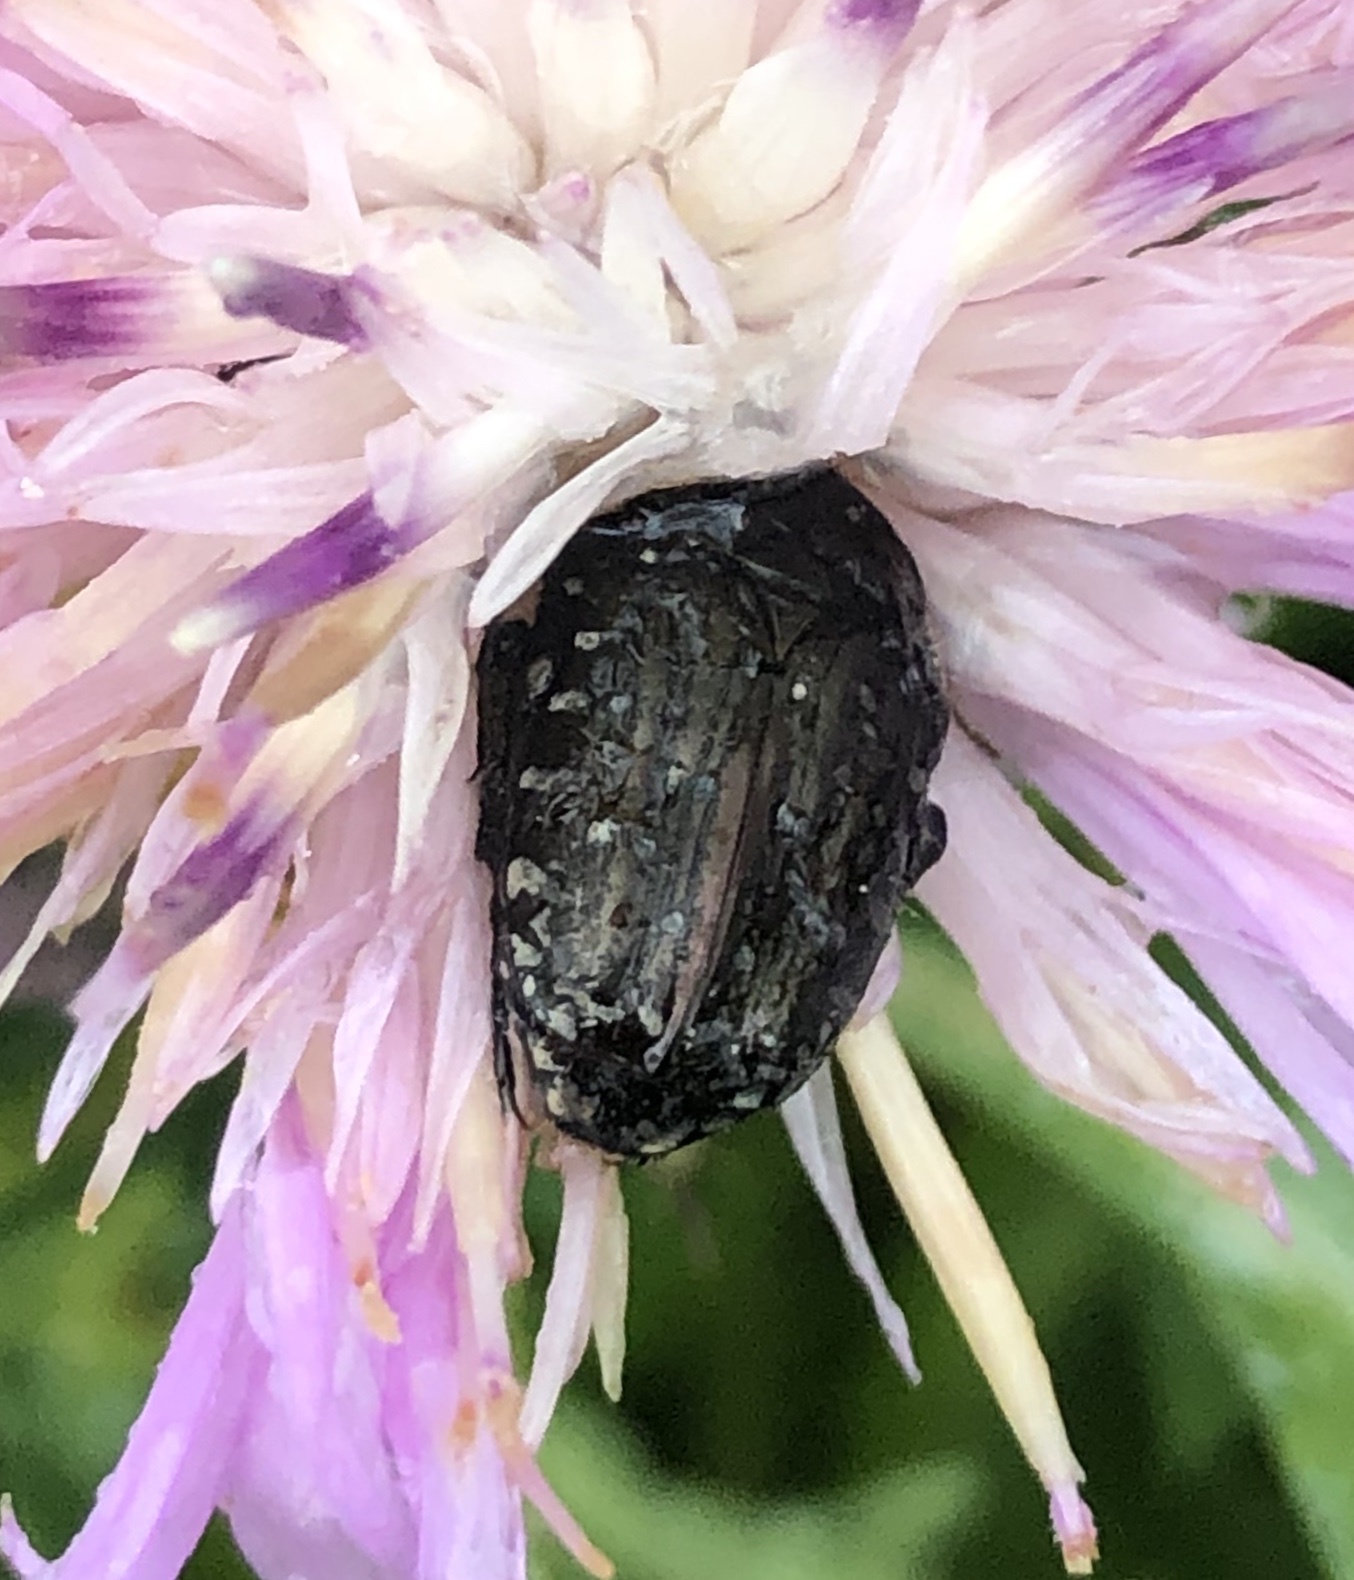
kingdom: Animalia
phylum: Arthropoda
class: Insecta
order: Coleoptera
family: Scarabaeidae
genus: Oxythyrea
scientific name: Oxythyrea funesta
